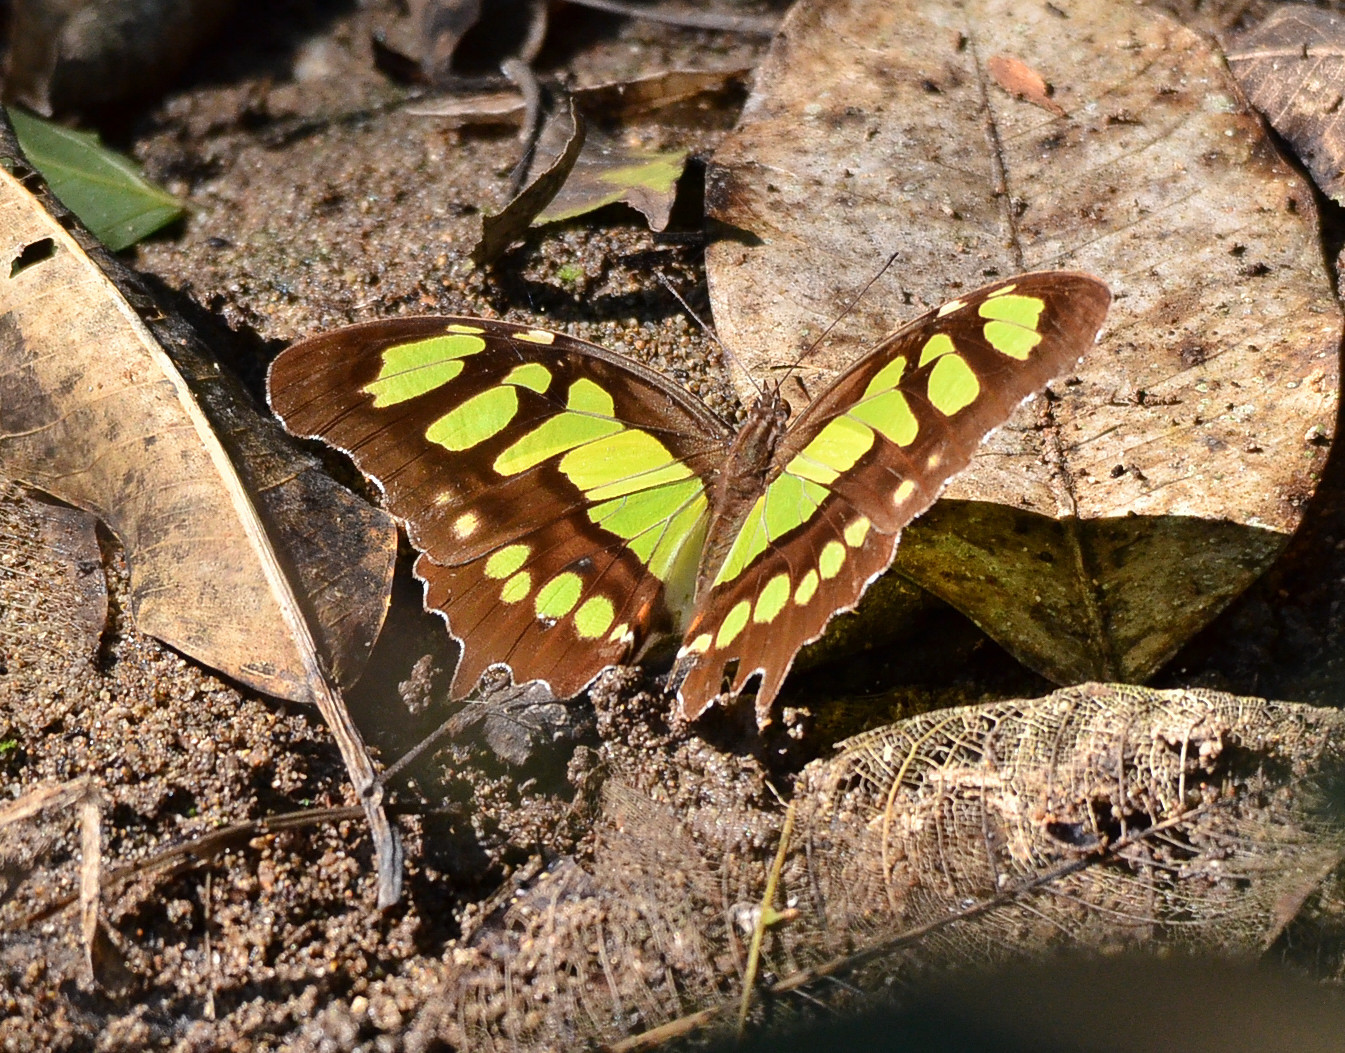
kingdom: Animalia
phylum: Arthropoda
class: Insecta
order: Lepidoptera
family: Nymphalidae
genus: Siproeta
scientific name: Siproeta stelenes
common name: Malachite
